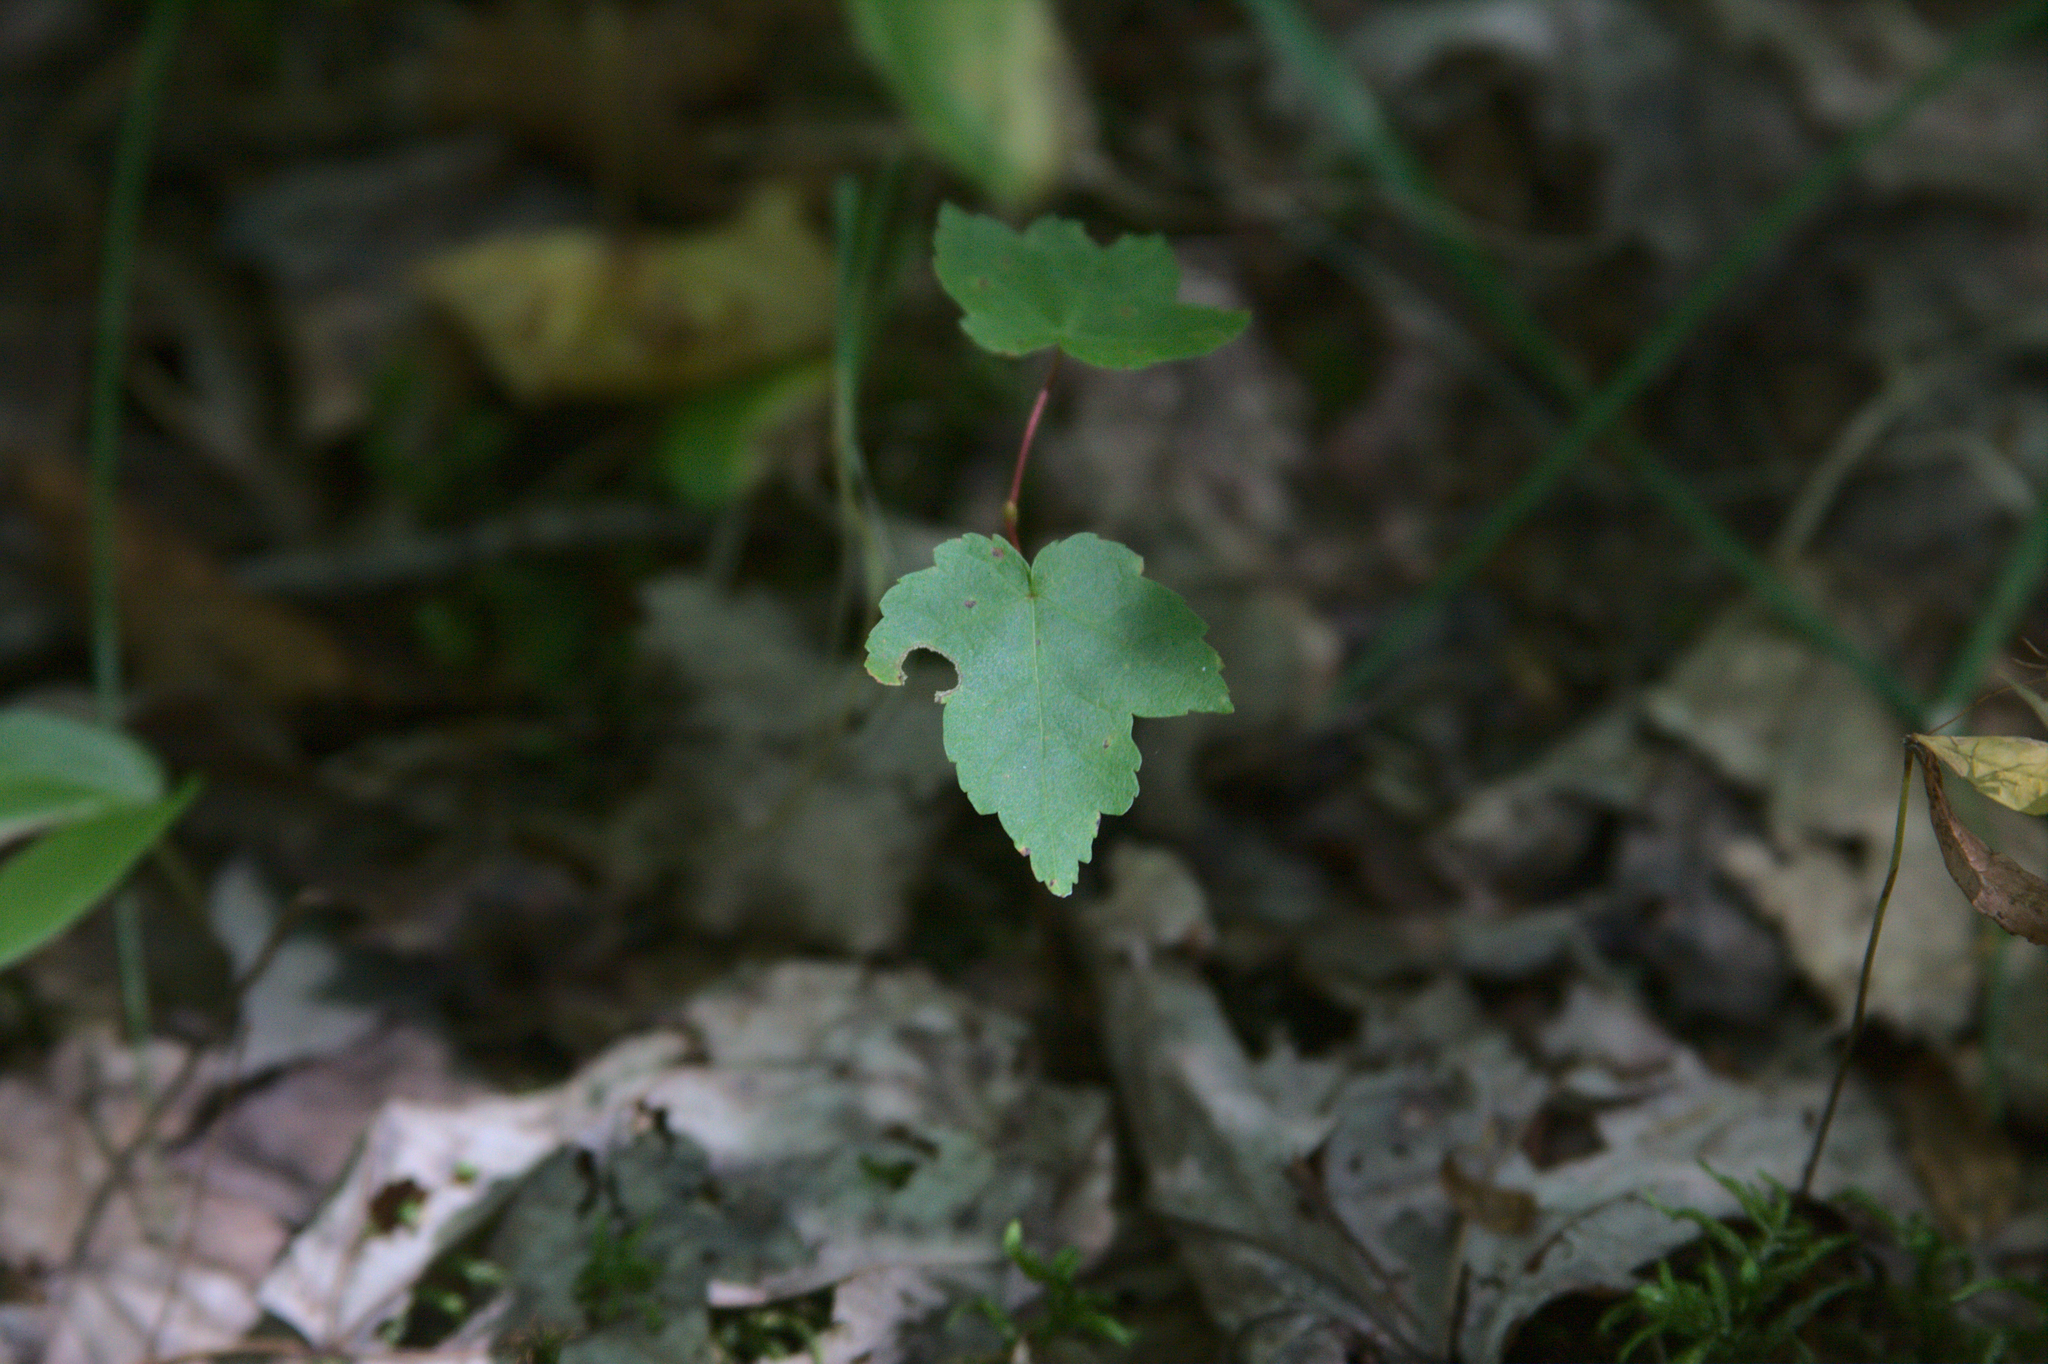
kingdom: Plantae
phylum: Tracheophyta
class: Magnoliopsida
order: Sapindales
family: Sapindaceae
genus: Acer
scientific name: Acer rubrum
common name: Red maple
